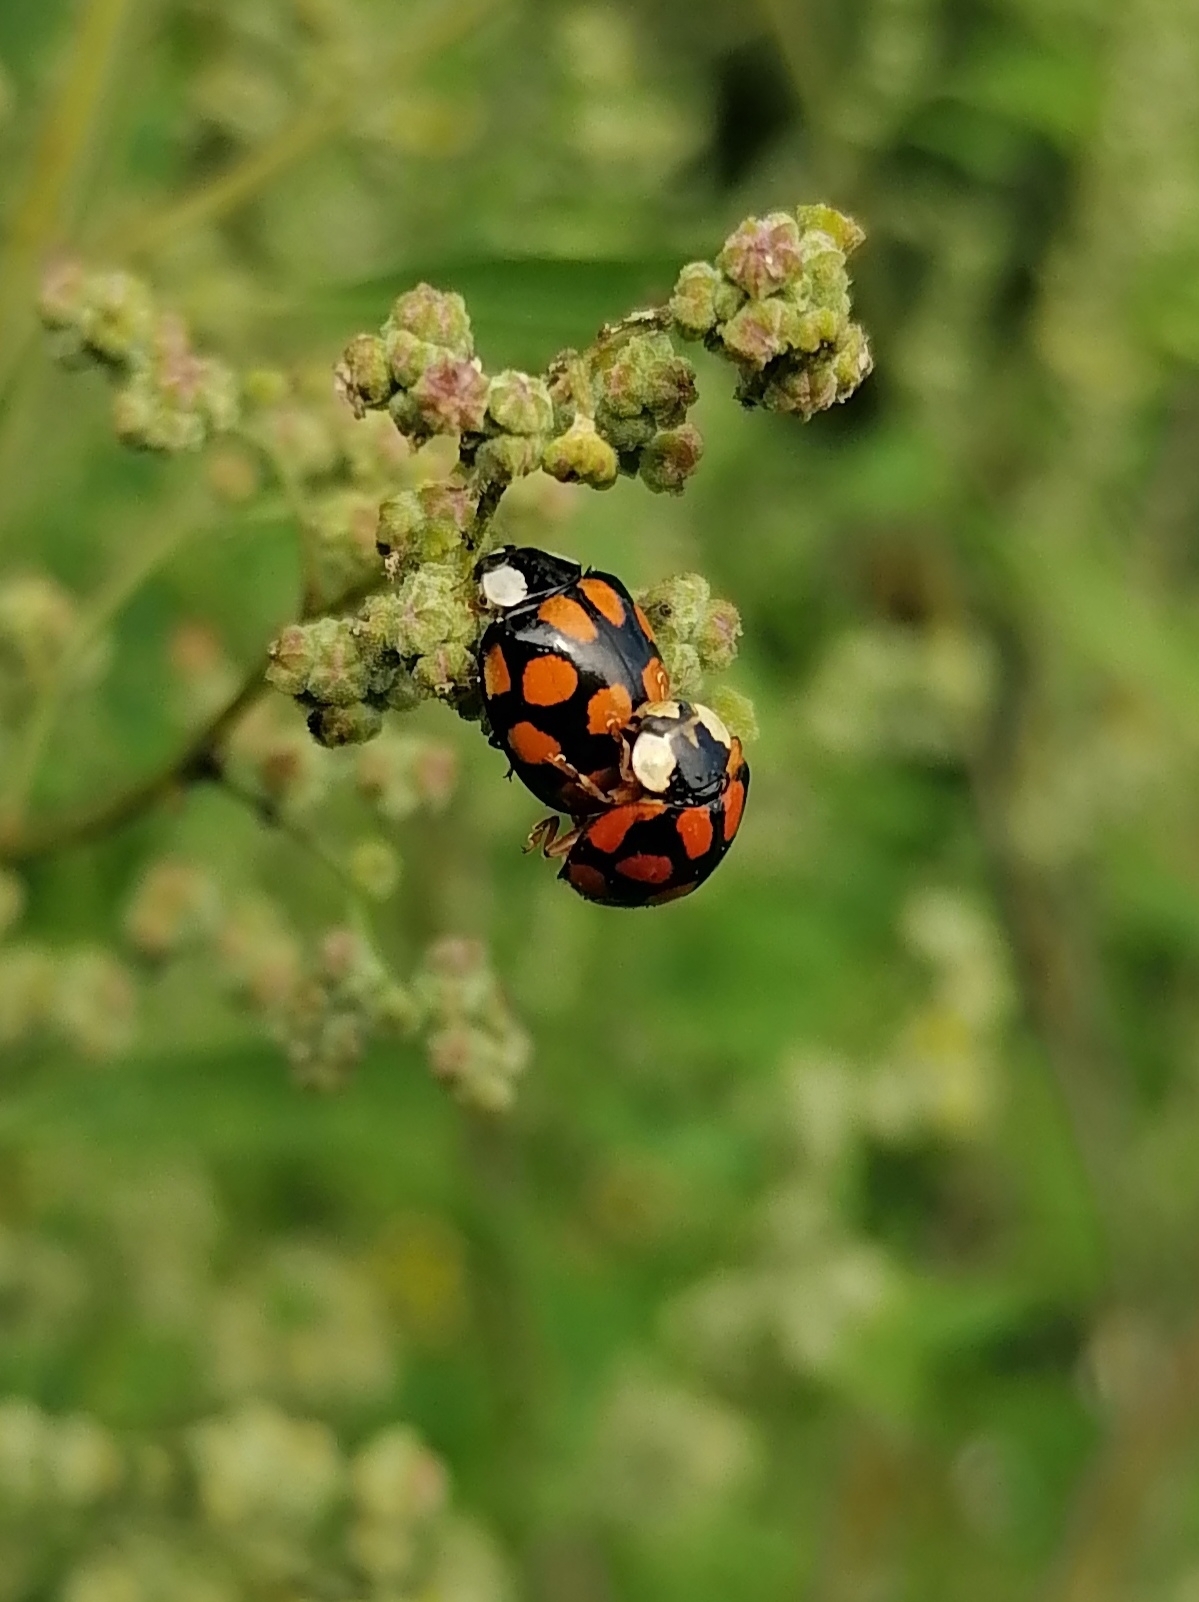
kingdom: Animalia
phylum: Arthropoda
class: Insecta
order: Coleoptera
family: Coccinellidae
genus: Harmonia
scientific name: Harmonia axyridis
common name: Harlequin ladybird
